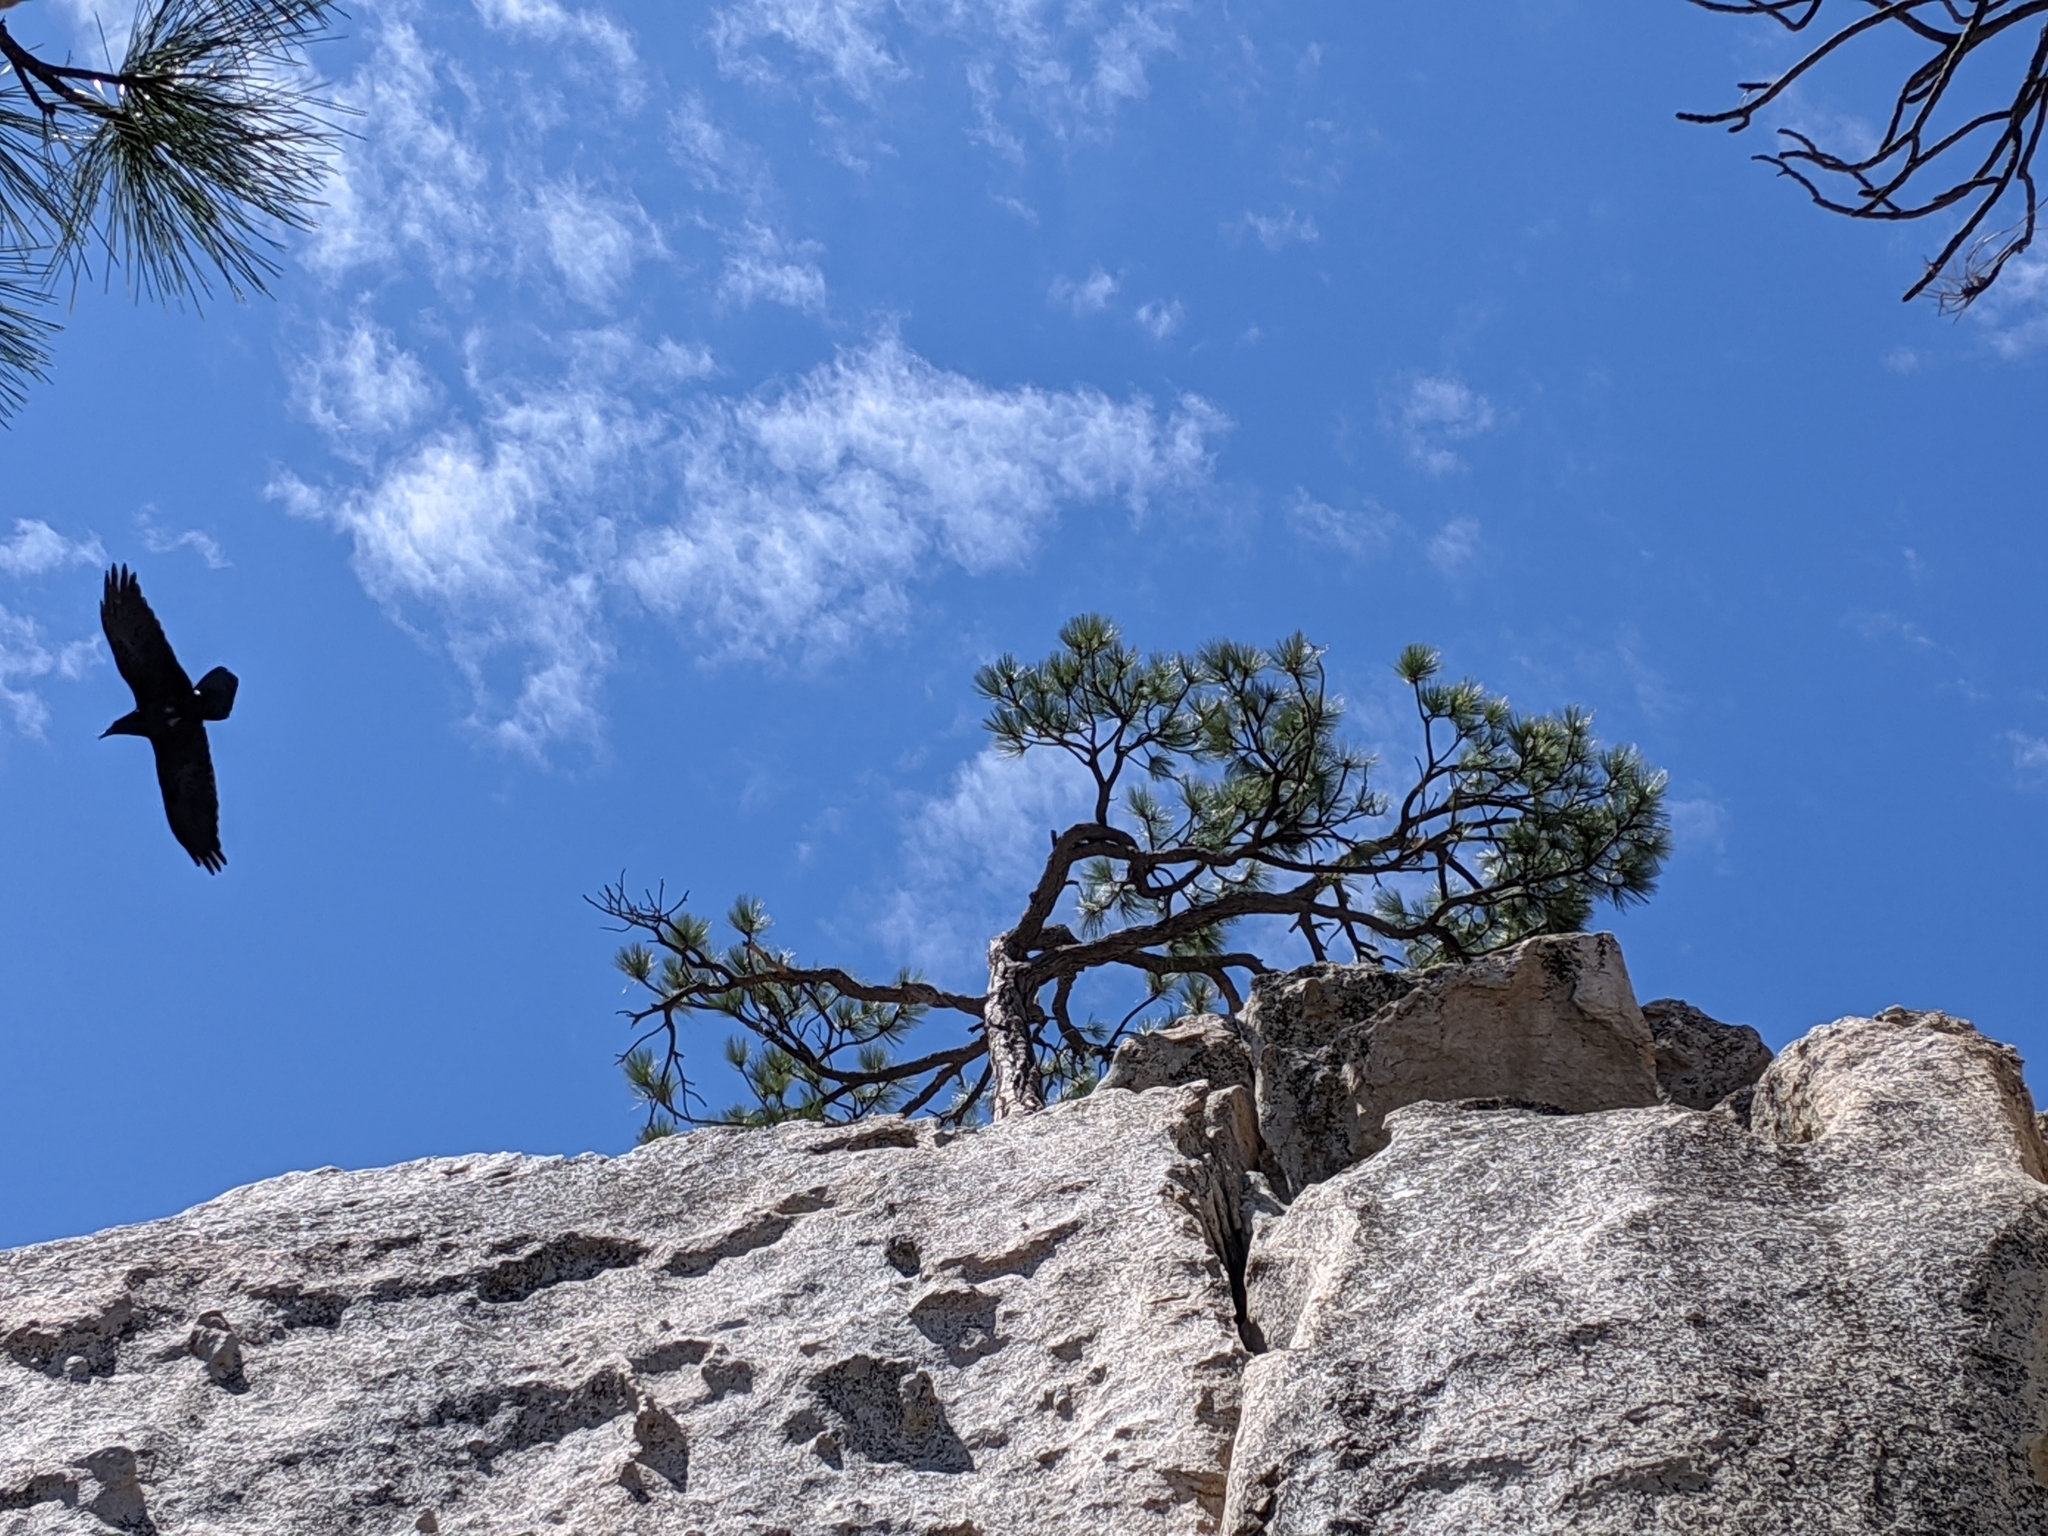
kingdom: Animalia
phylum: Chordata
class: Aves
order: Passeriformes
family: Corvidae
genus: Corvus
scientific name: Corvus corax
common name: Common raven
